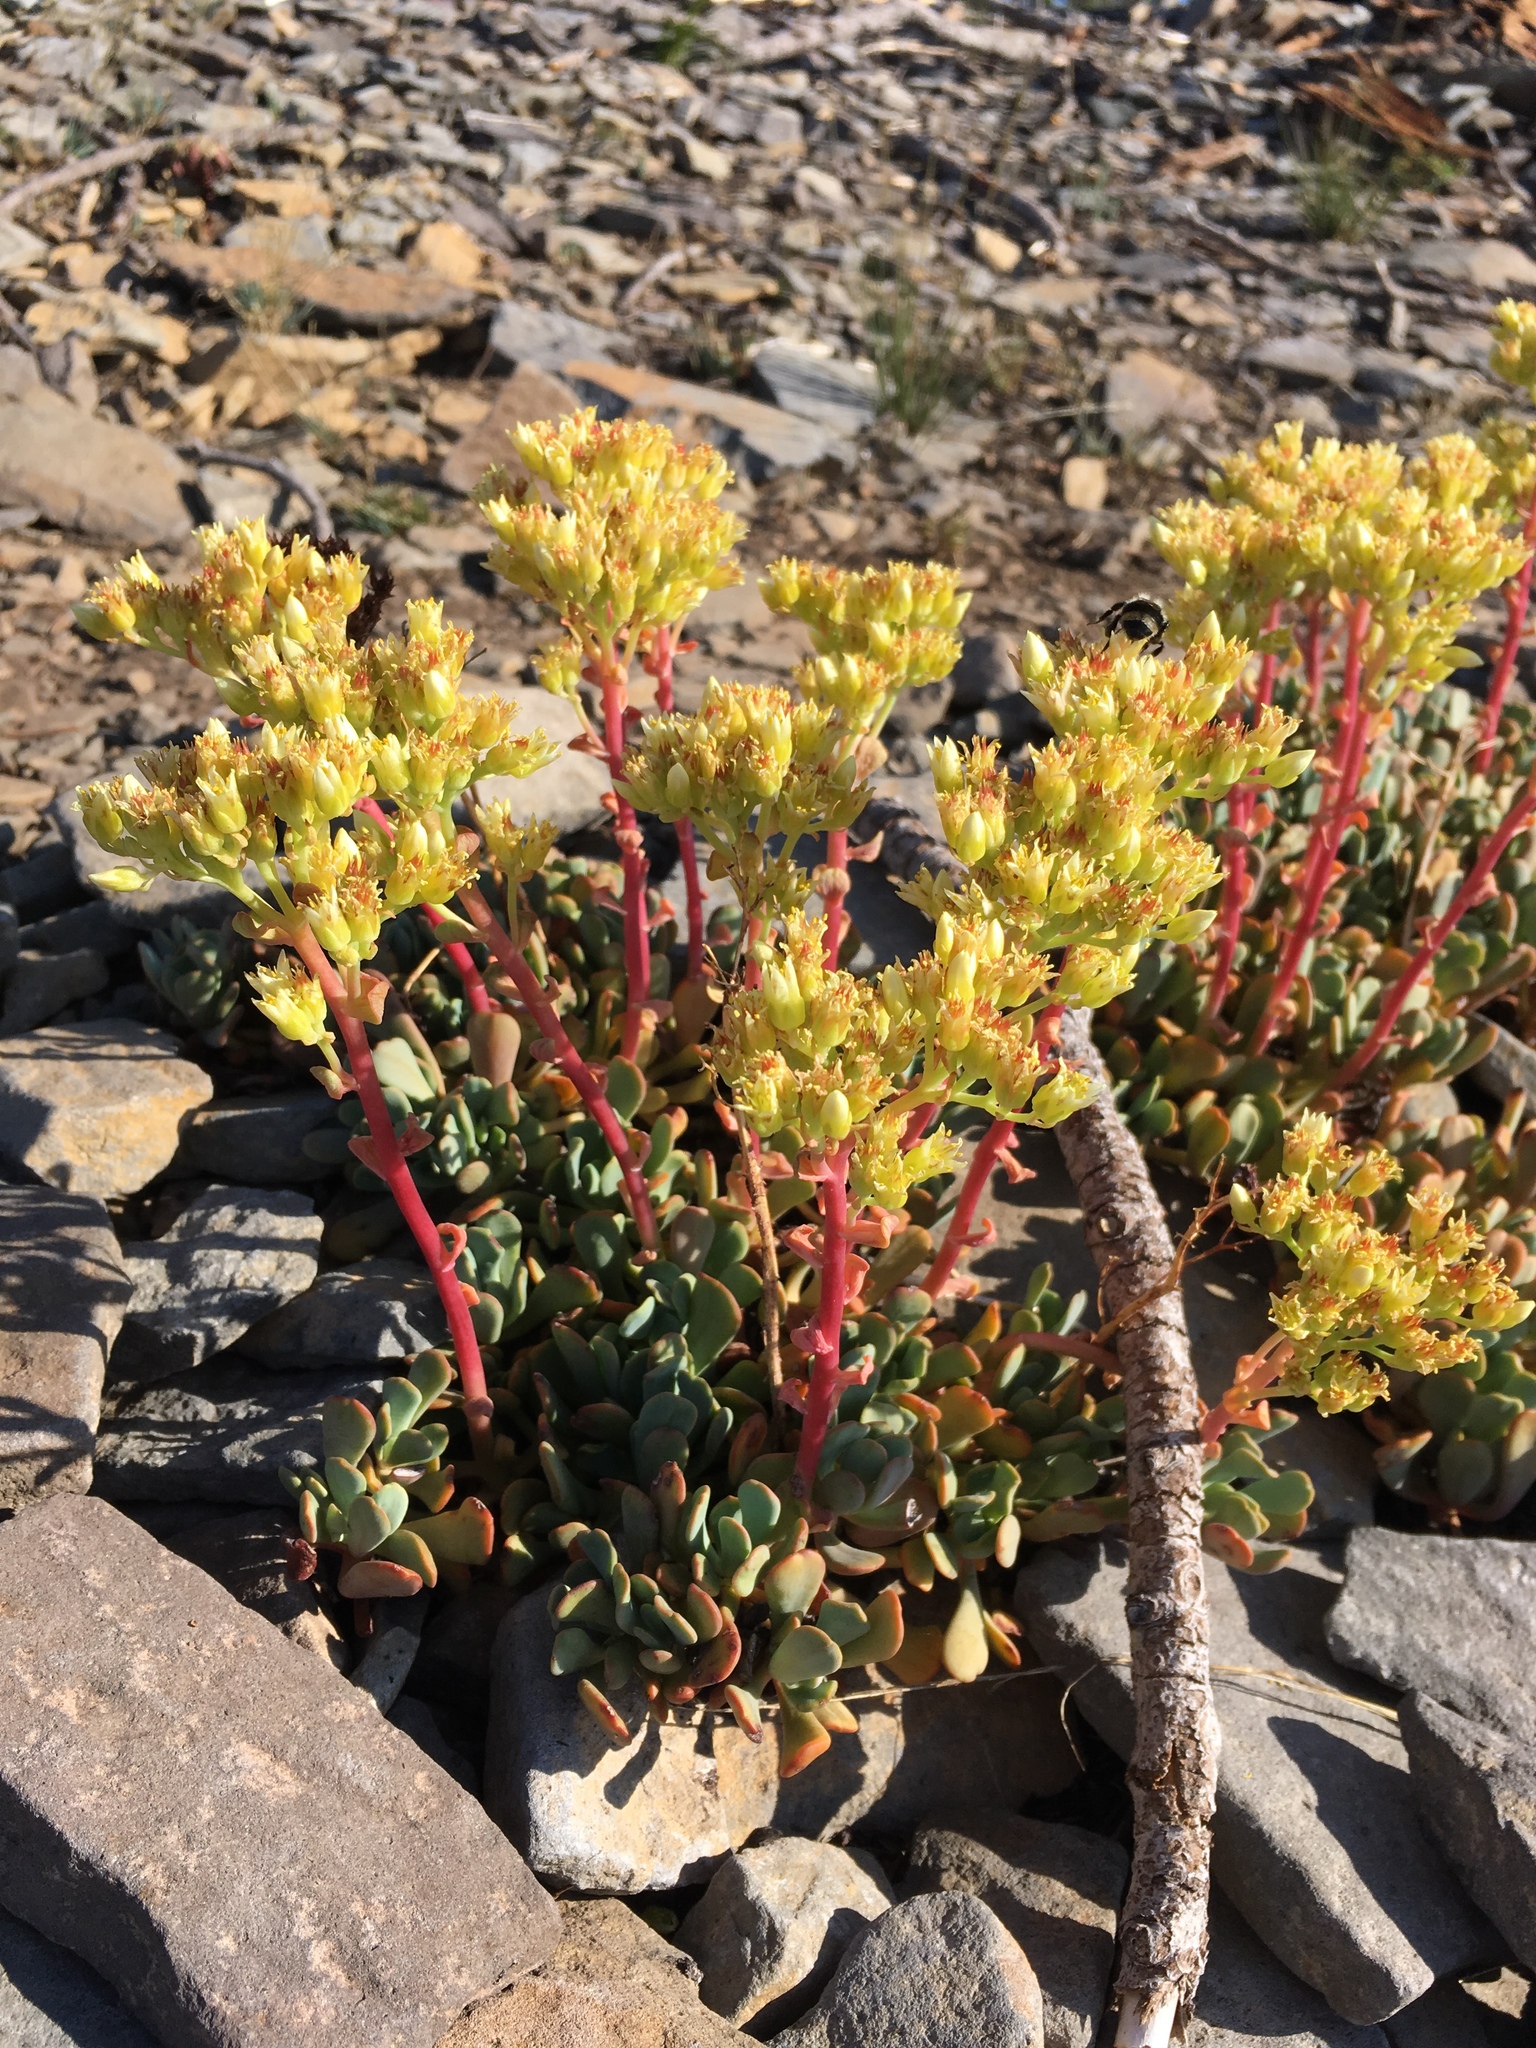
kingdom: Plantae
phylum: Tracheophyta
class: Magnoliopsida
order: Saxifragales
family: Crassulaceae
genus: Sedum
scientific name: Sedum oregonense
